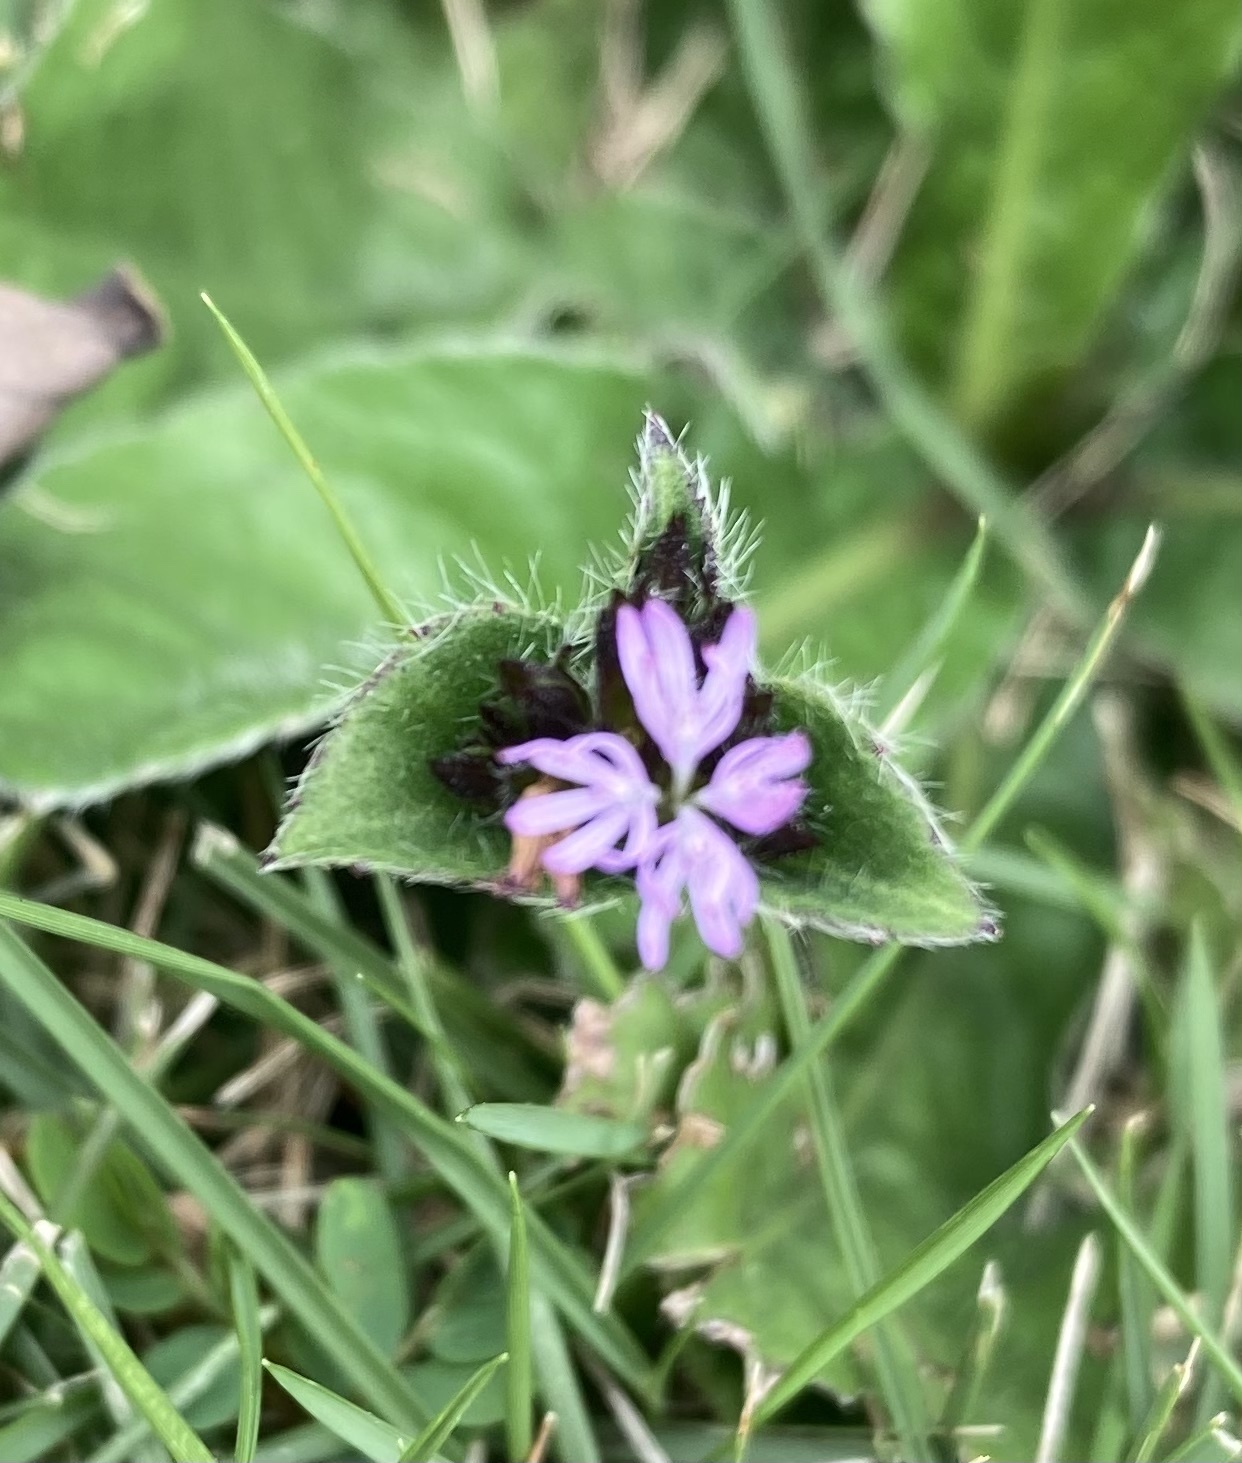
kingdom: Plantae
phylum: Tracheophyta
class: Magnoliopsida
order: Asterales
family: Asteraceae
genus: Elephantopus
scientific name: Elephantopus scaber
